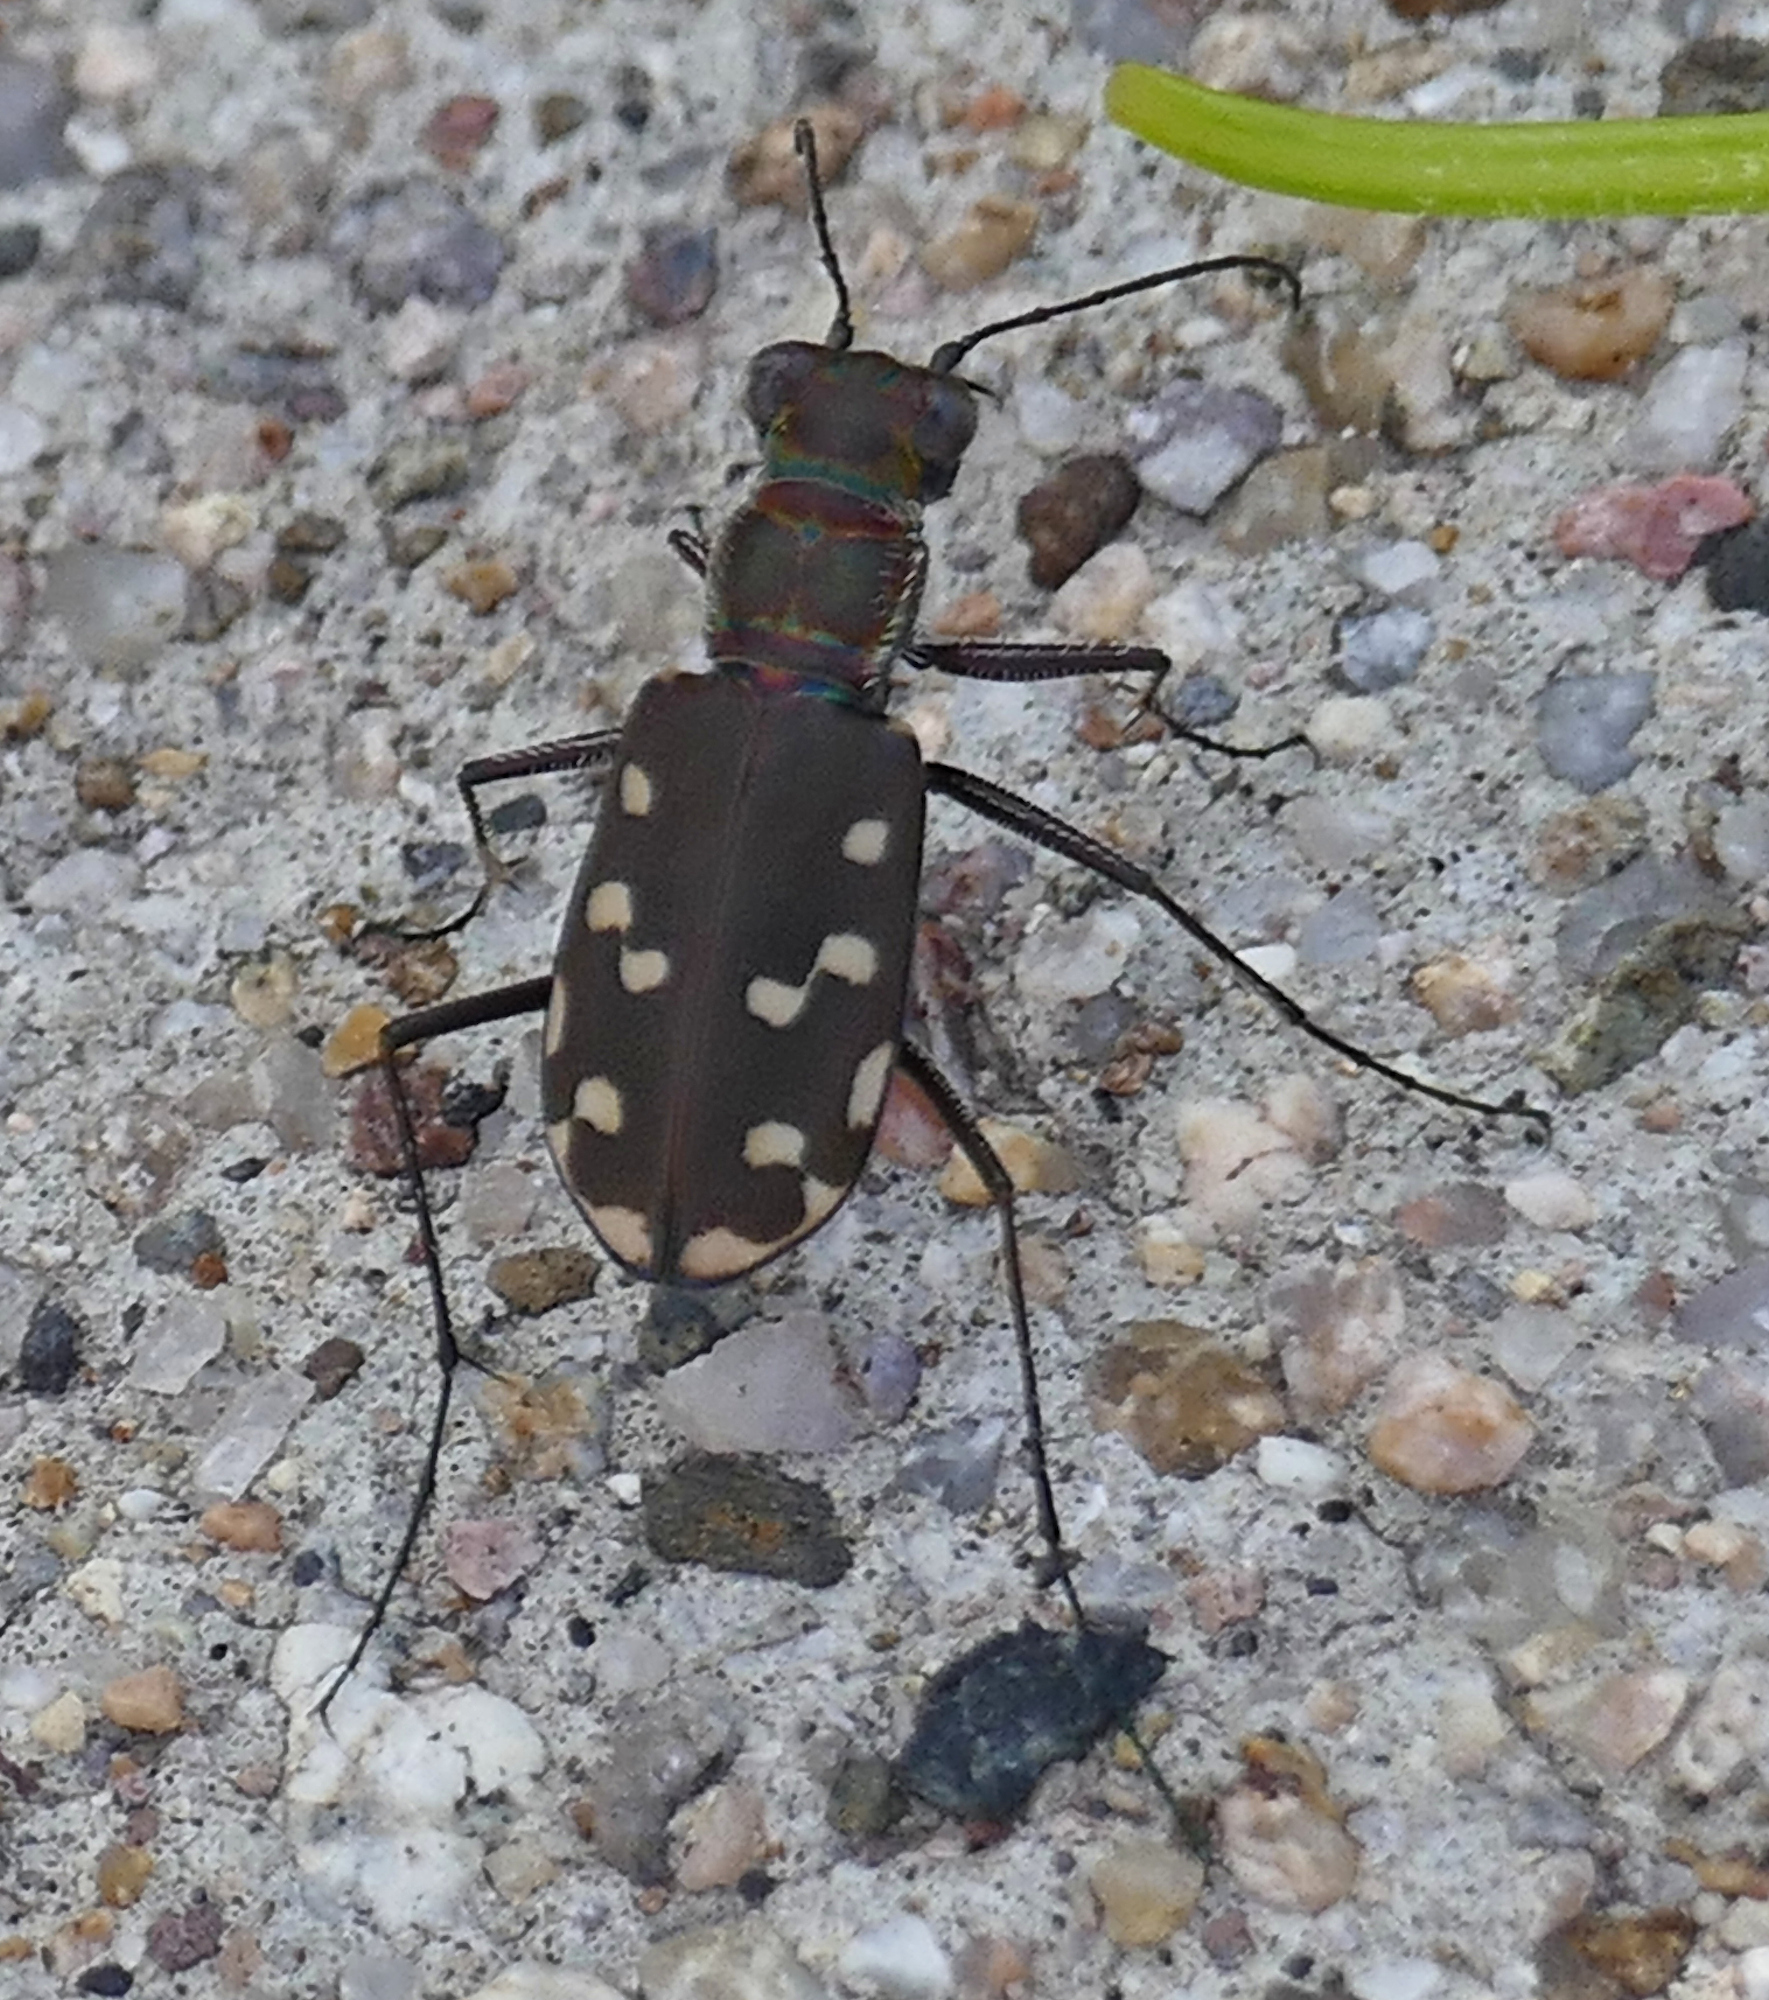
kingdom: Animalia
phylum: Arthropoda
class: Insecta
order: Coleoptera
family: Carabidae
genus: Cicindela
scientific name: Cicindela sedecimpunctata
